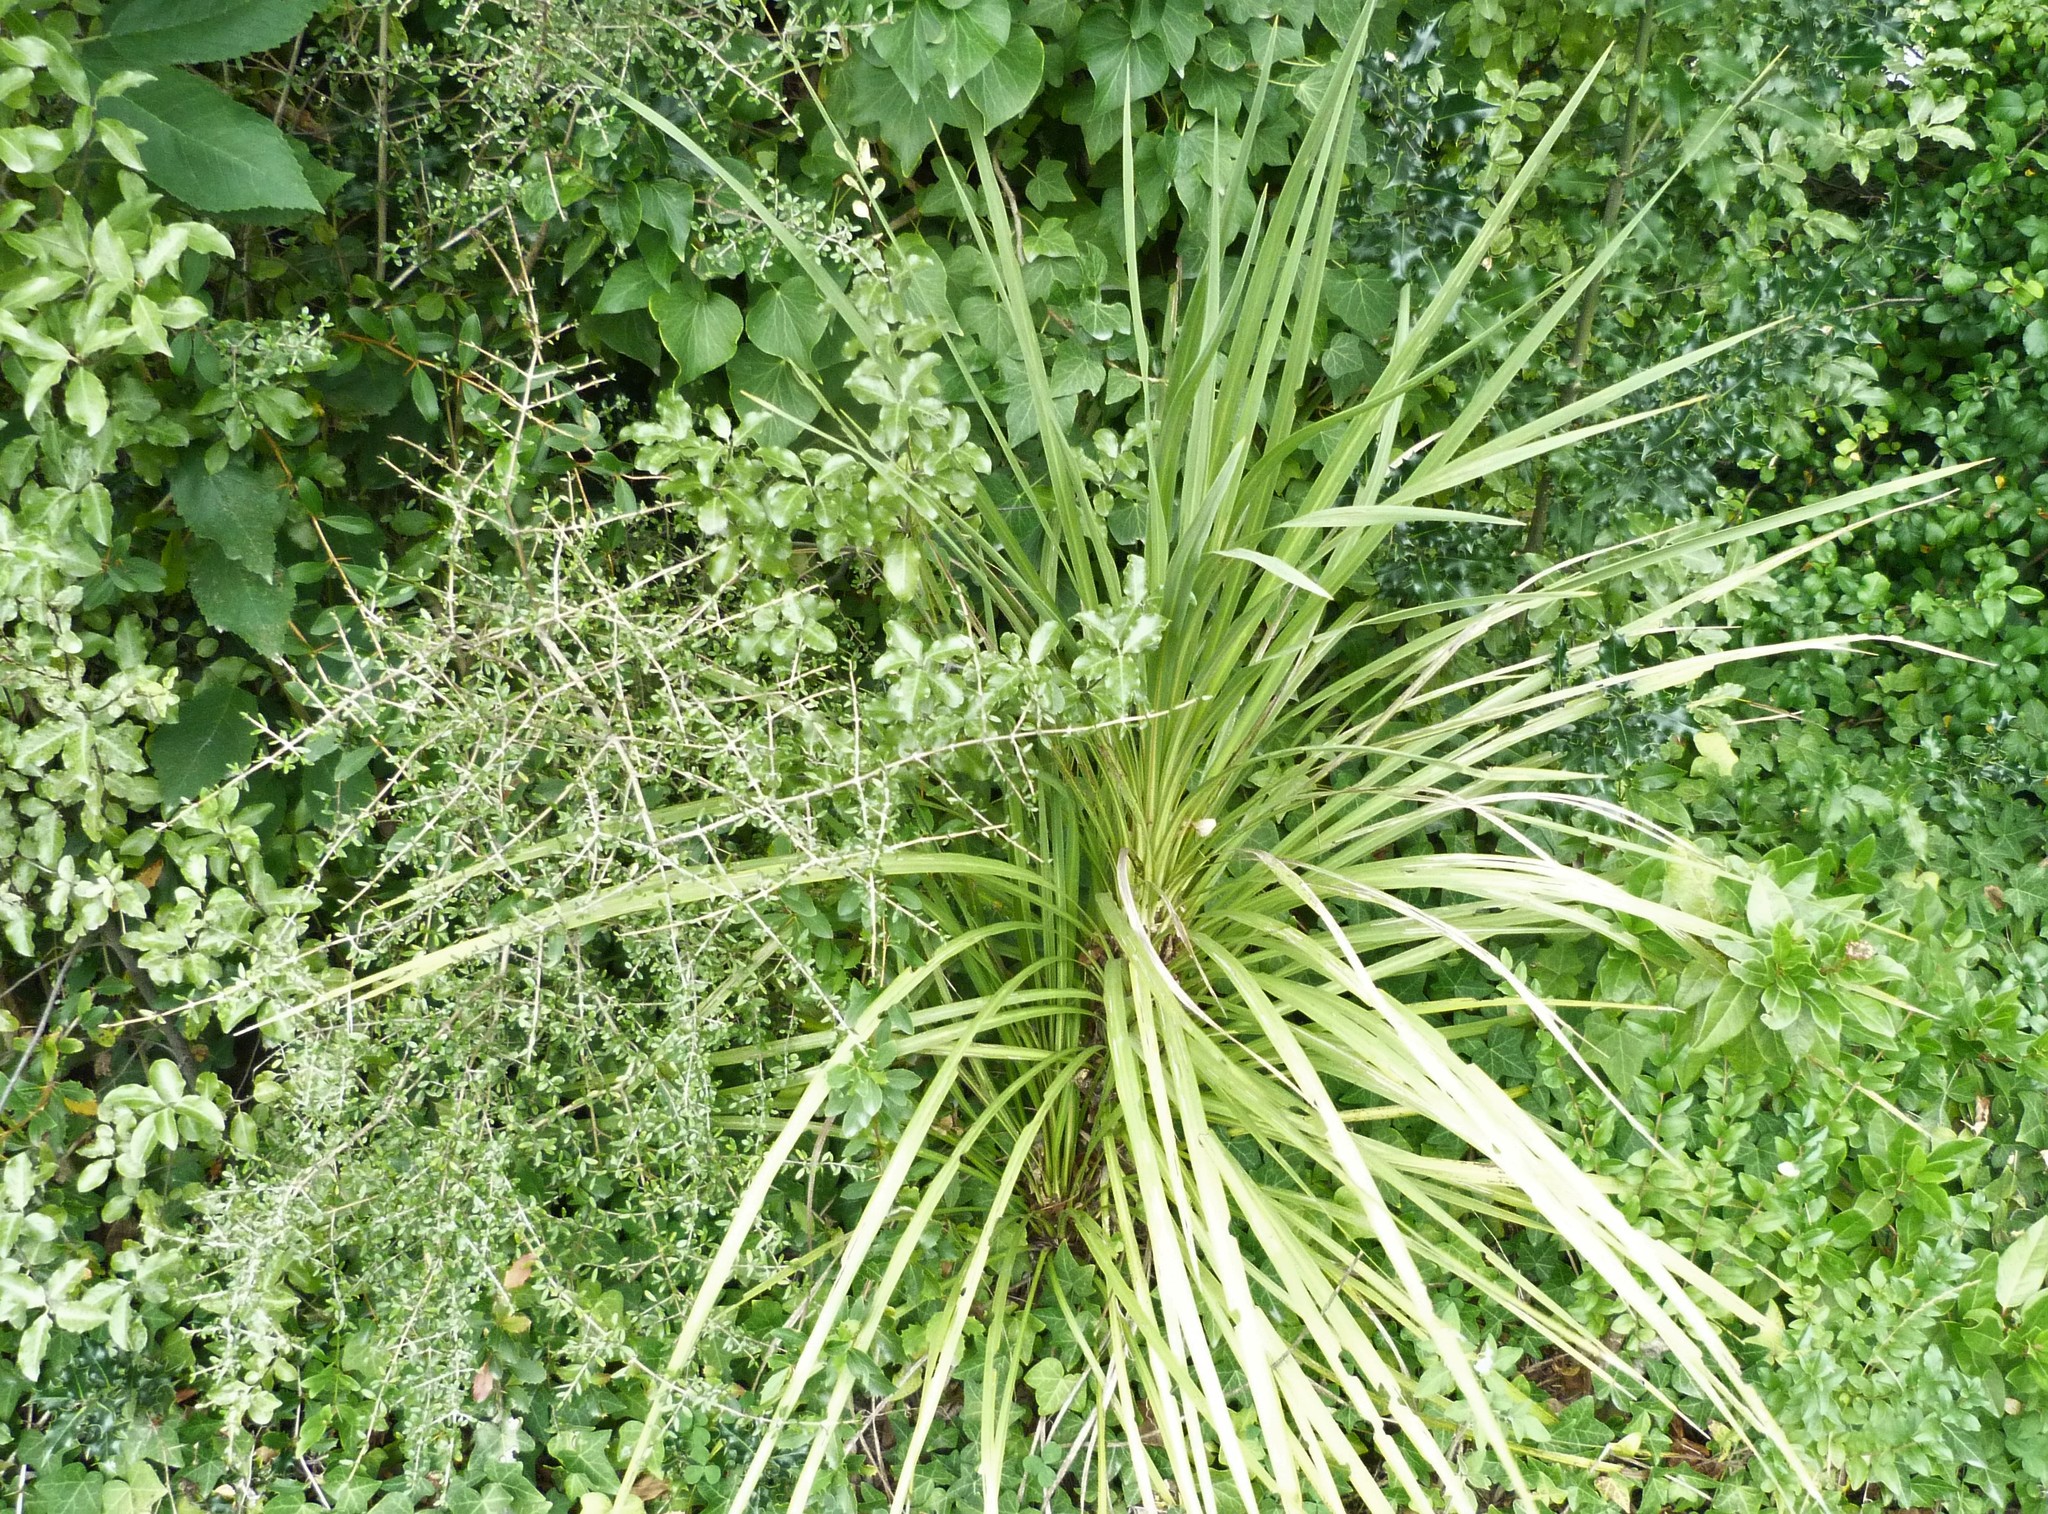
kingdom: Plantae
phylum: Tracheophyta
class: Liliopsida
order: Asparagales
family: Asparagaceae
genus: Cordyline
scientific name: Cordyline australis
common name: Cabbage-palm
